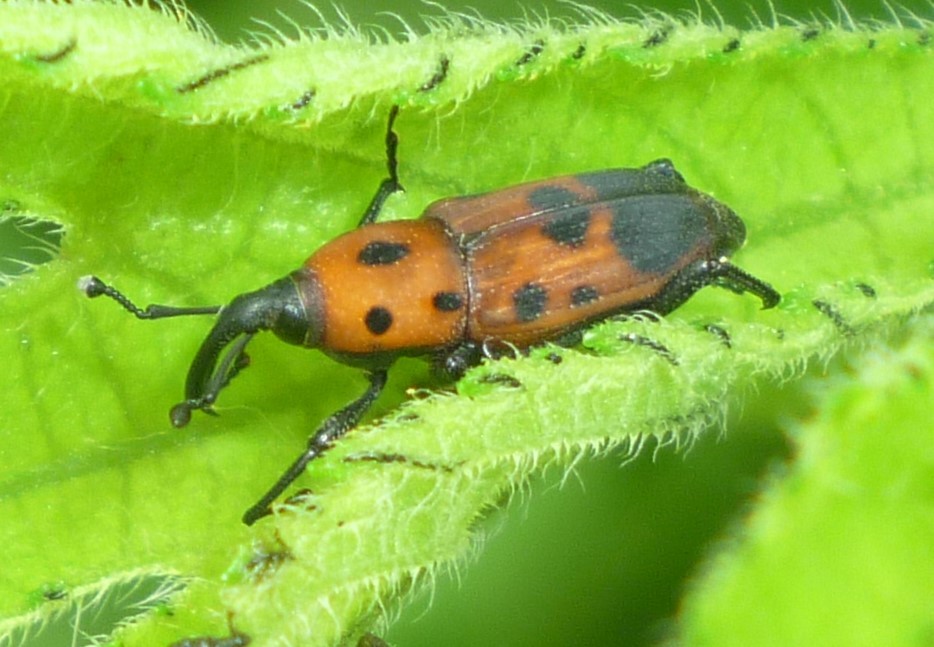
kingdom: Animalia
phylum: Arthropoda
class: Insecta
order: Coleoptera
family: Dryophthoridae
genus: Rhodobaenus
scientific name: Rhodobaenus quinquepunctatus
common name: Cocklebur weevil
